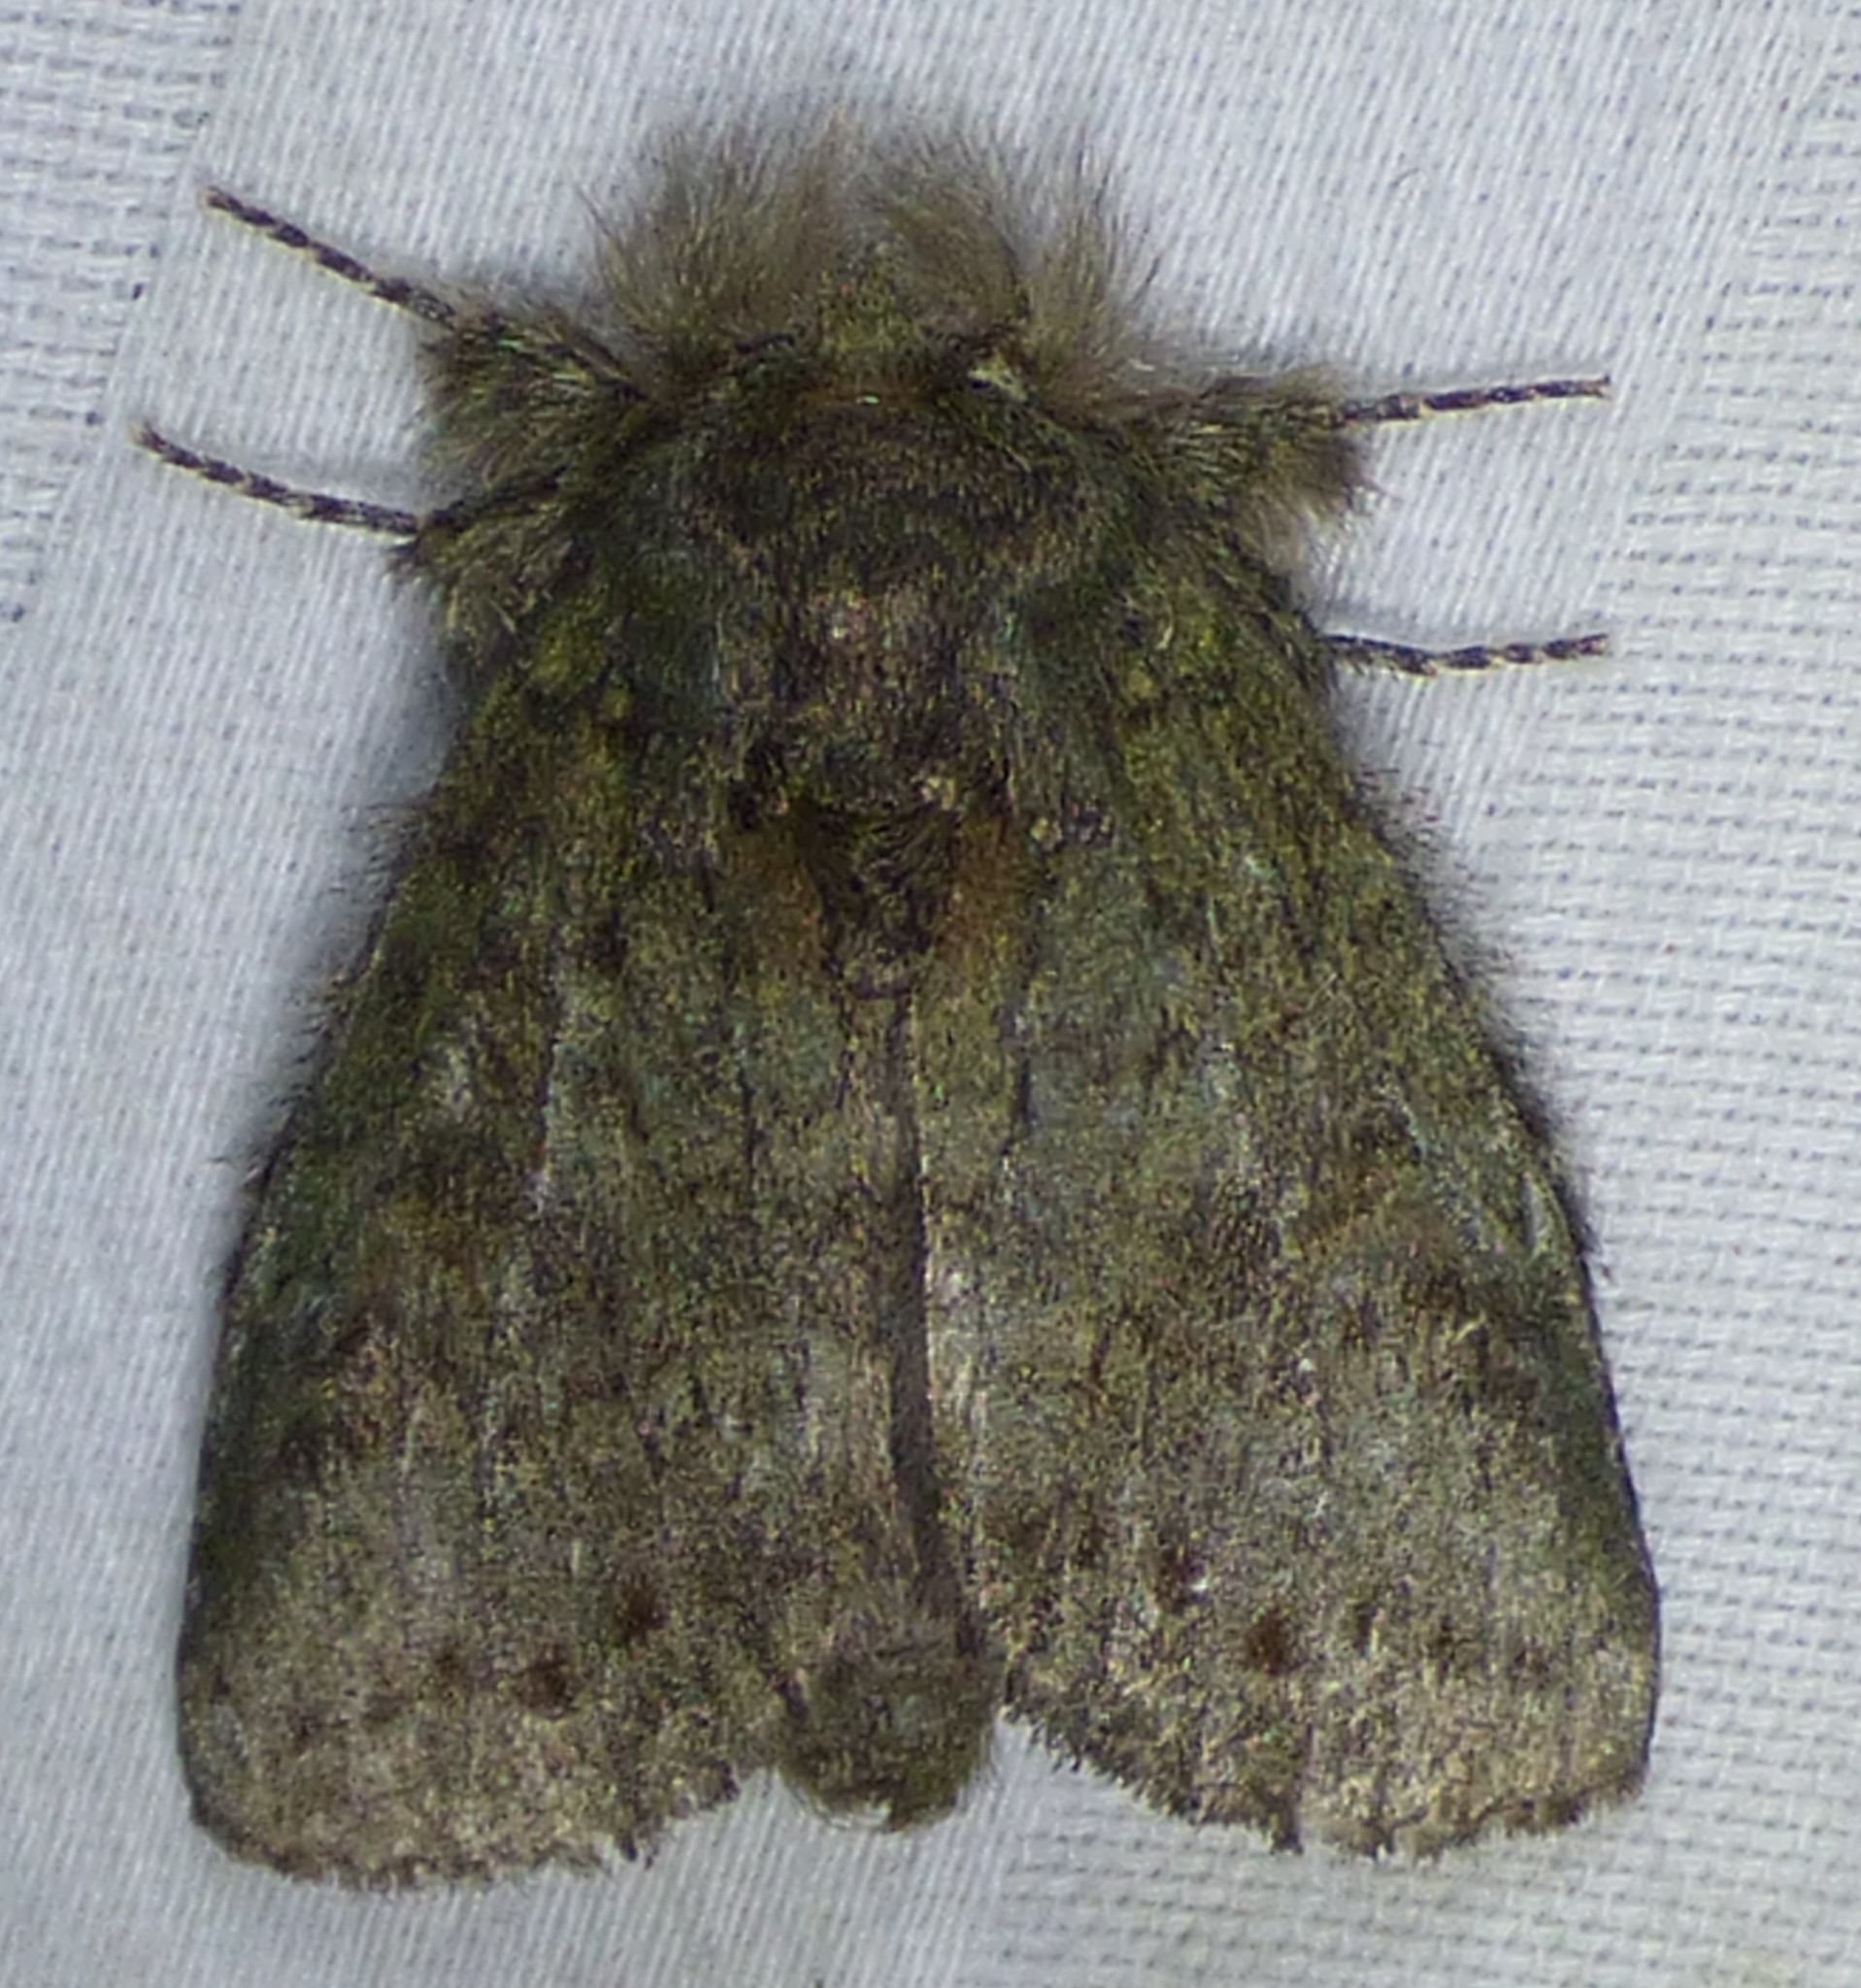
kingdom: Animalia
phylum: Arthropoda
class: Insecta
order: Lepidoptera
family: Notodontidae
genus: Disphragis
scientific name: Disphragis Cecrita guttivitta
